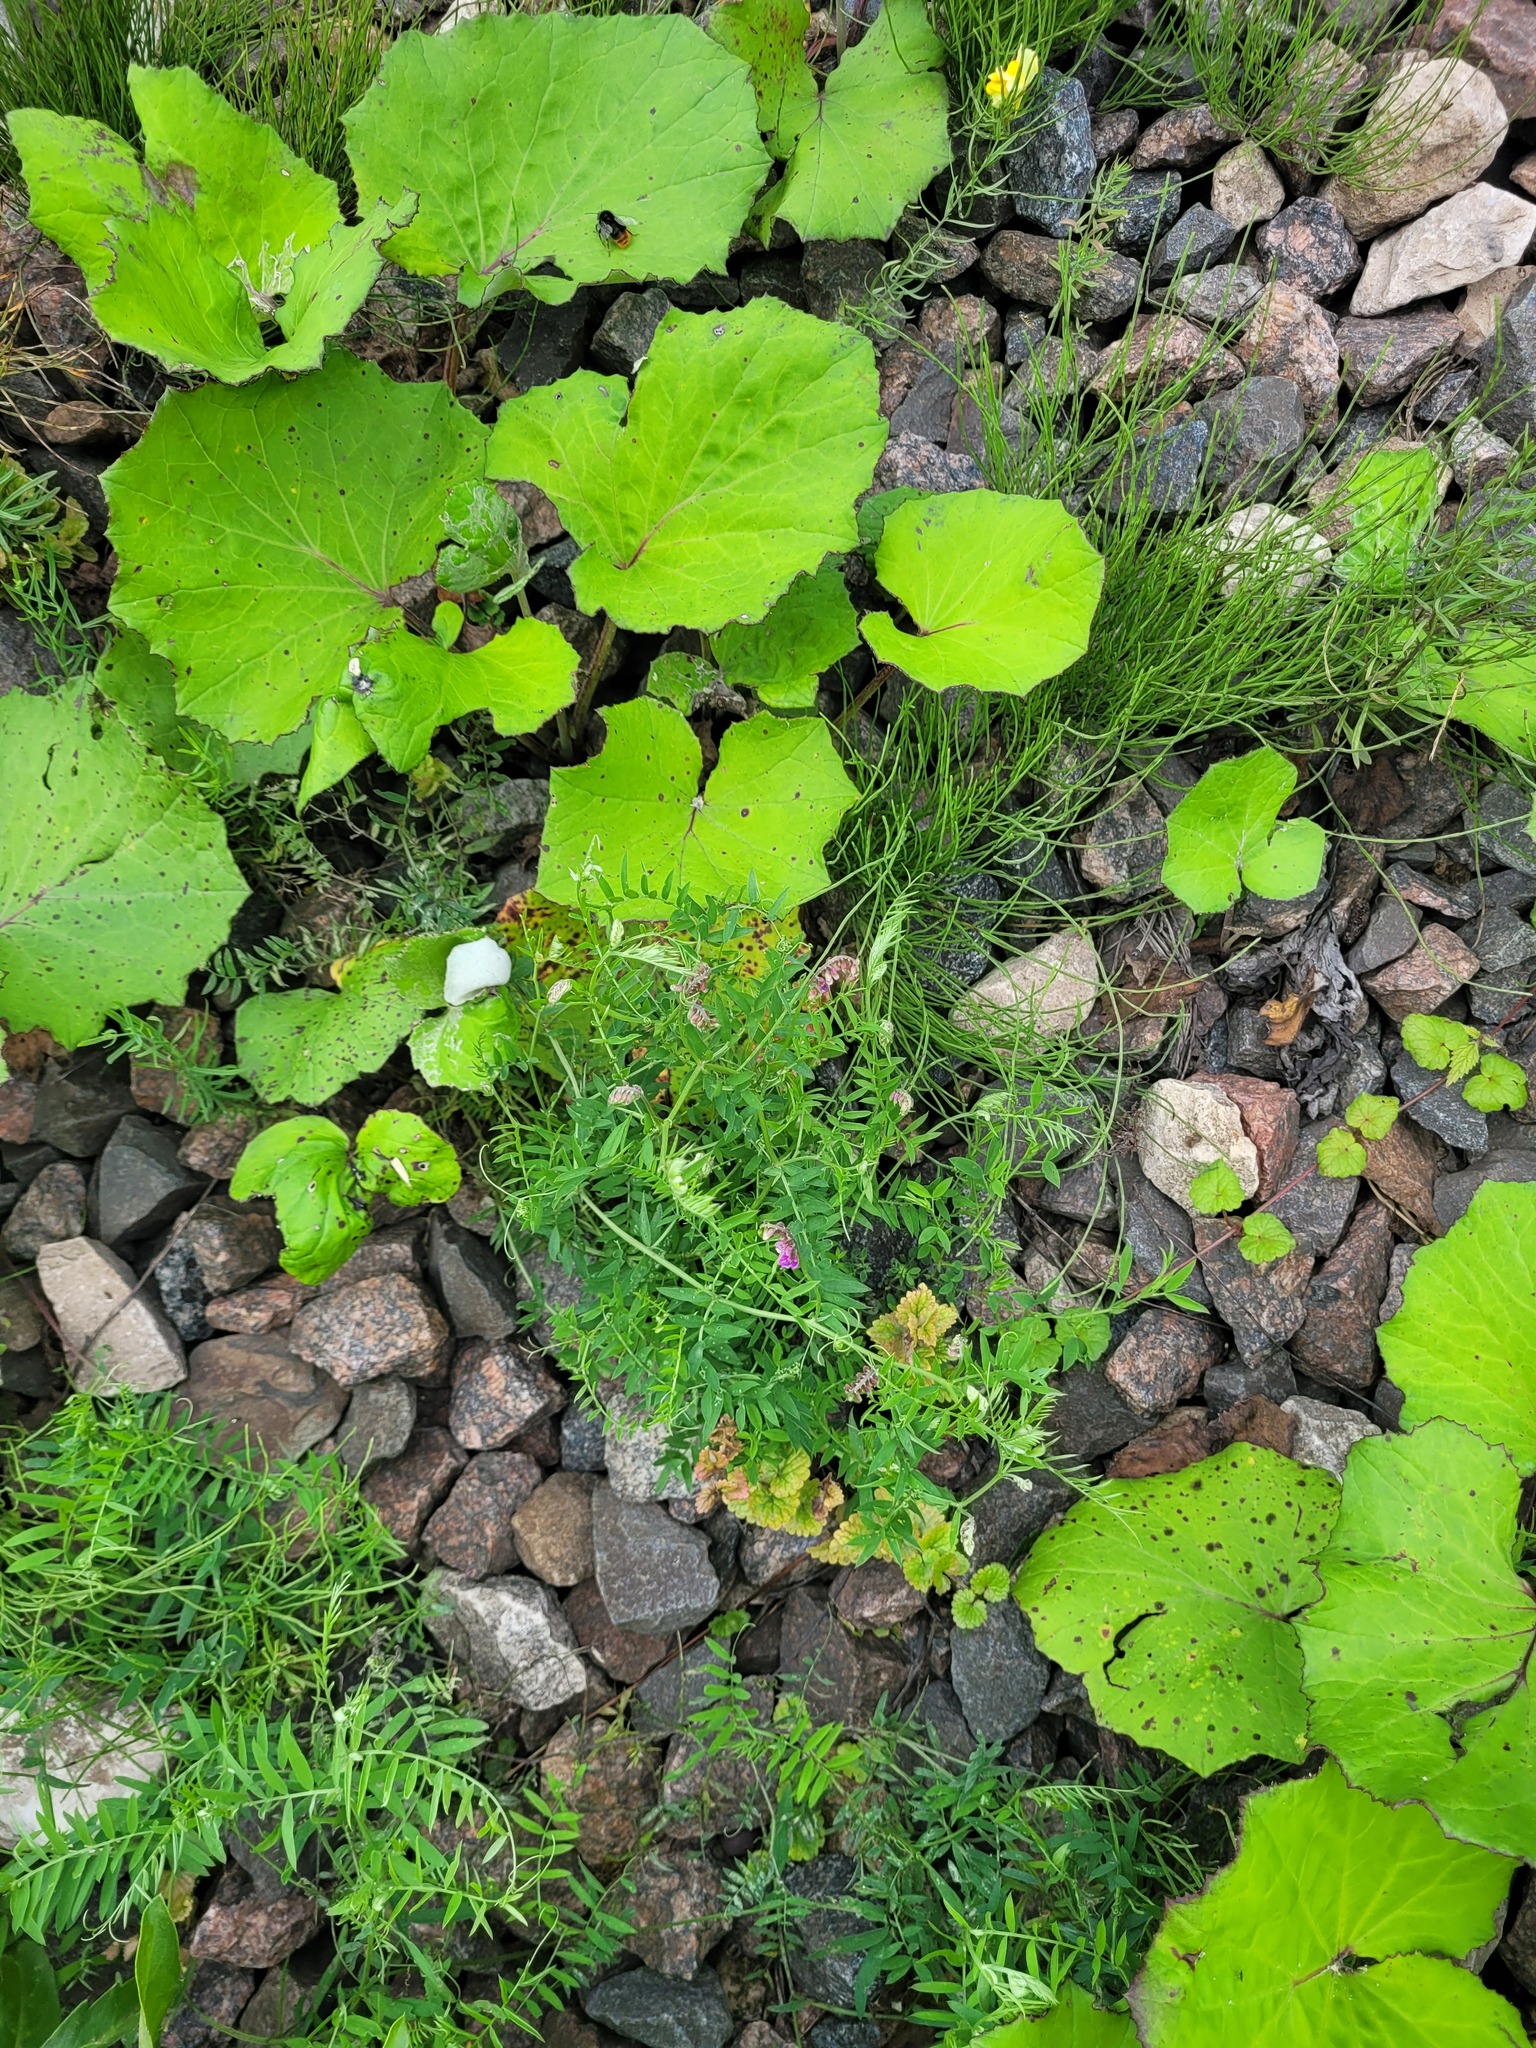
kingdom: Plantae
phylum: Tracheophyta
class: Magnoliopsida
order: Fabales
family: Fabaceae
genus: Vicia
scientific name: Vicia cracca
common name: Bird vetch
